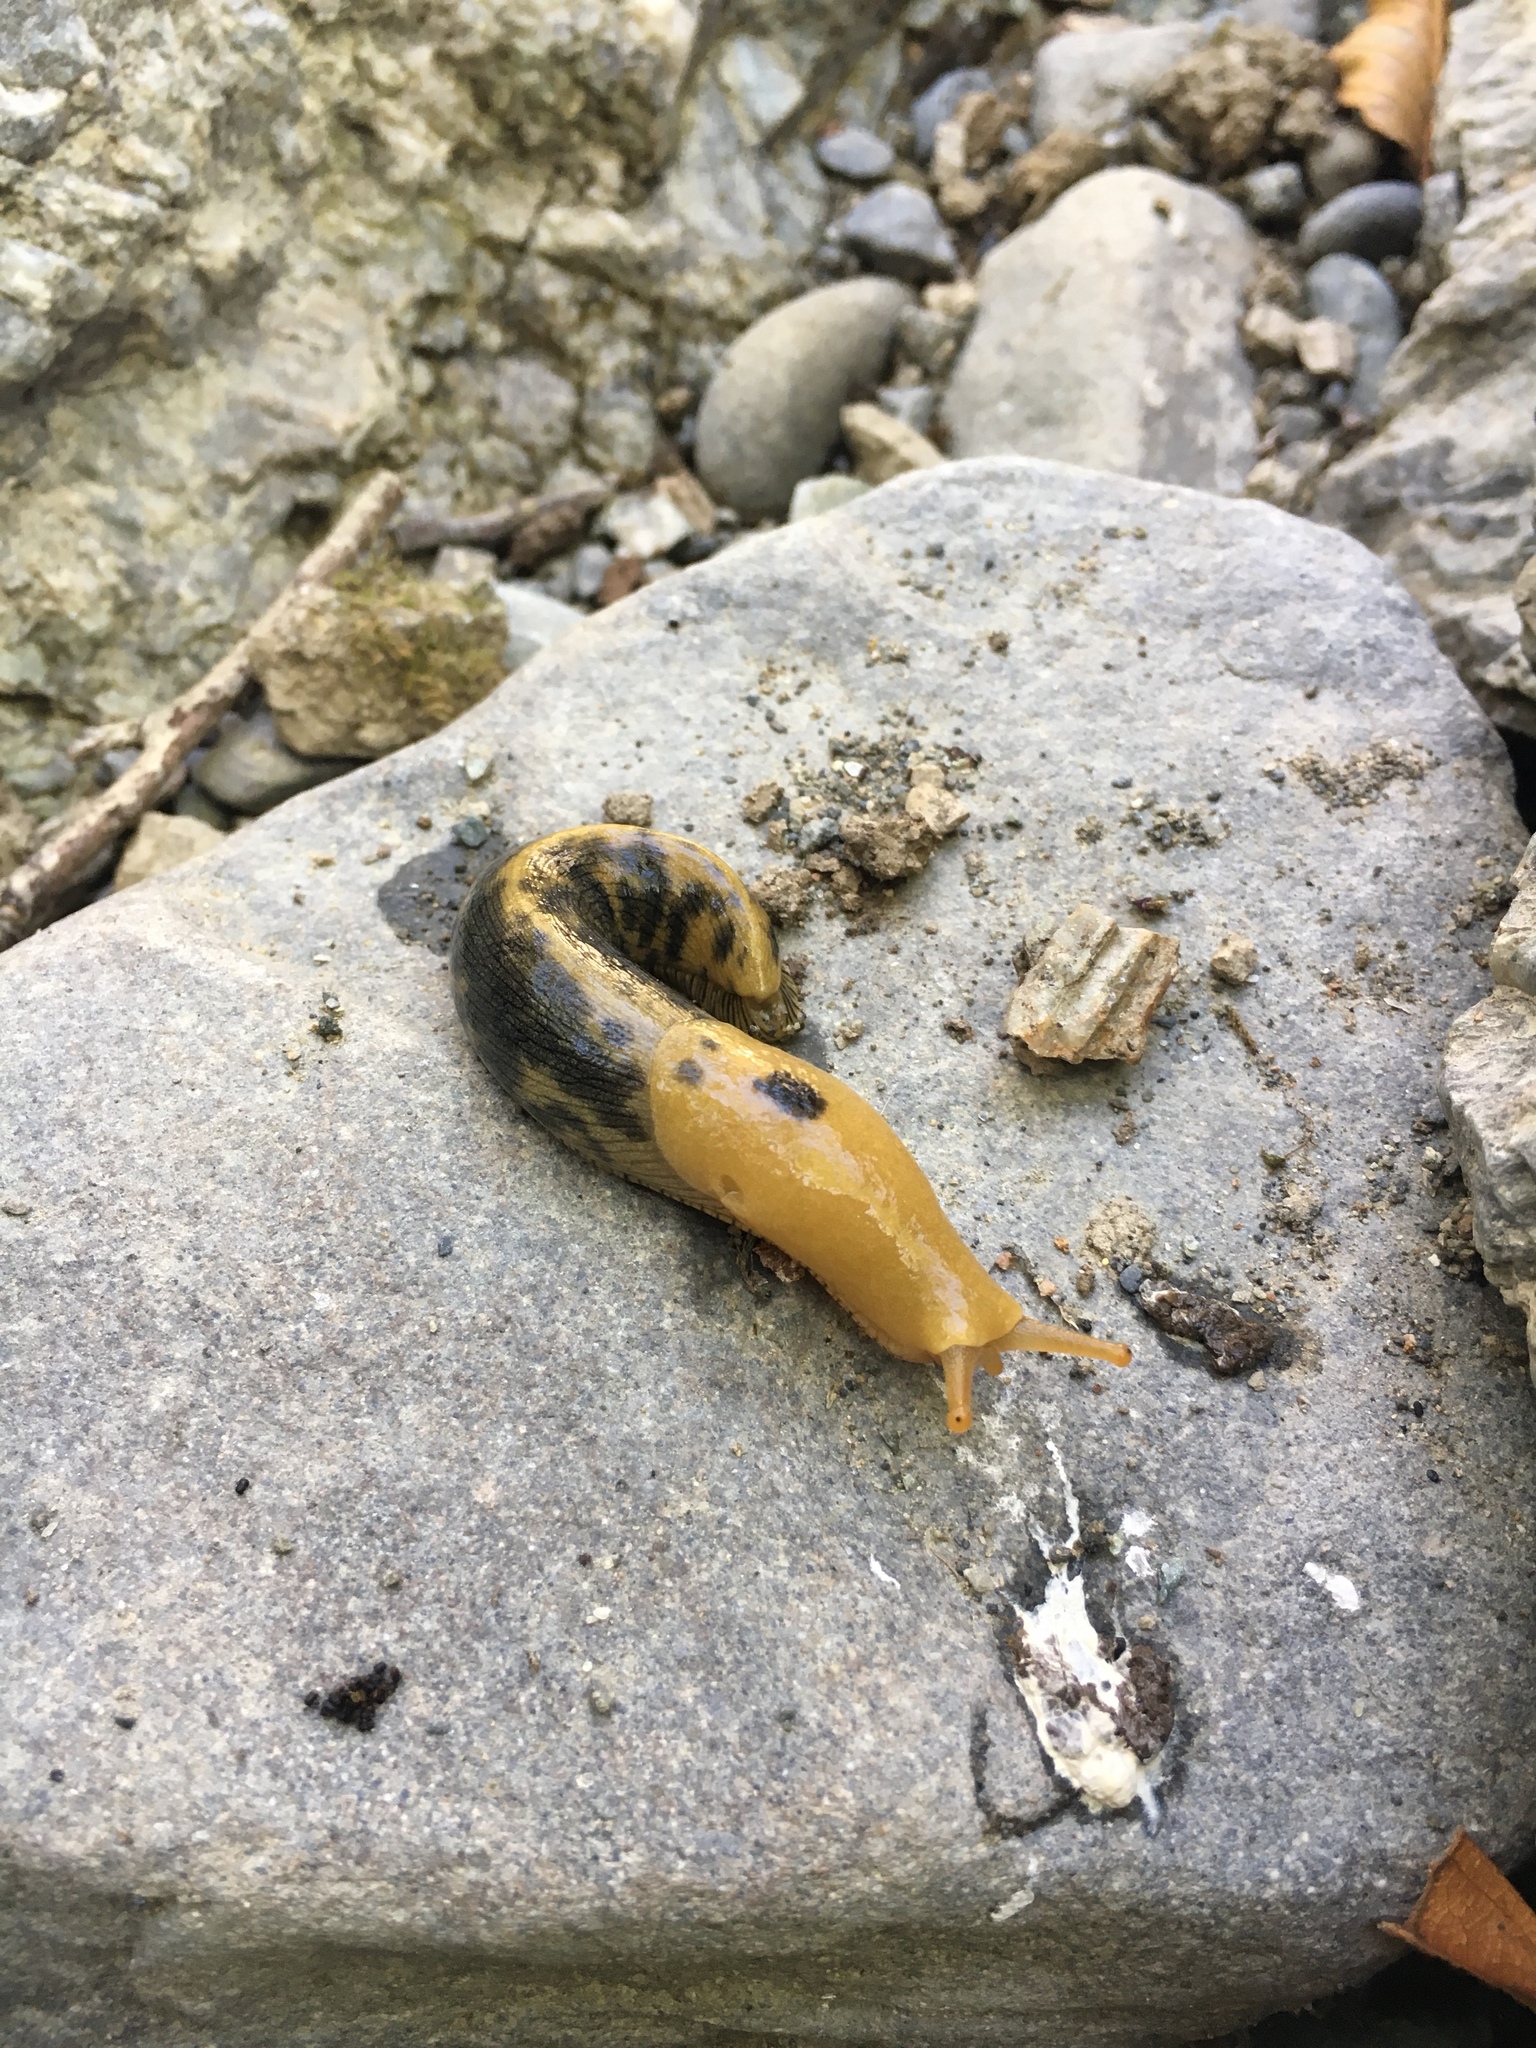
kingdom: Animalia
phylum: Mollusca
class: Gastropoda
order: Stylommatophora
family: Ariolimacidae
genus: Ariolimax
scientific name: Ariolimax buttoni
